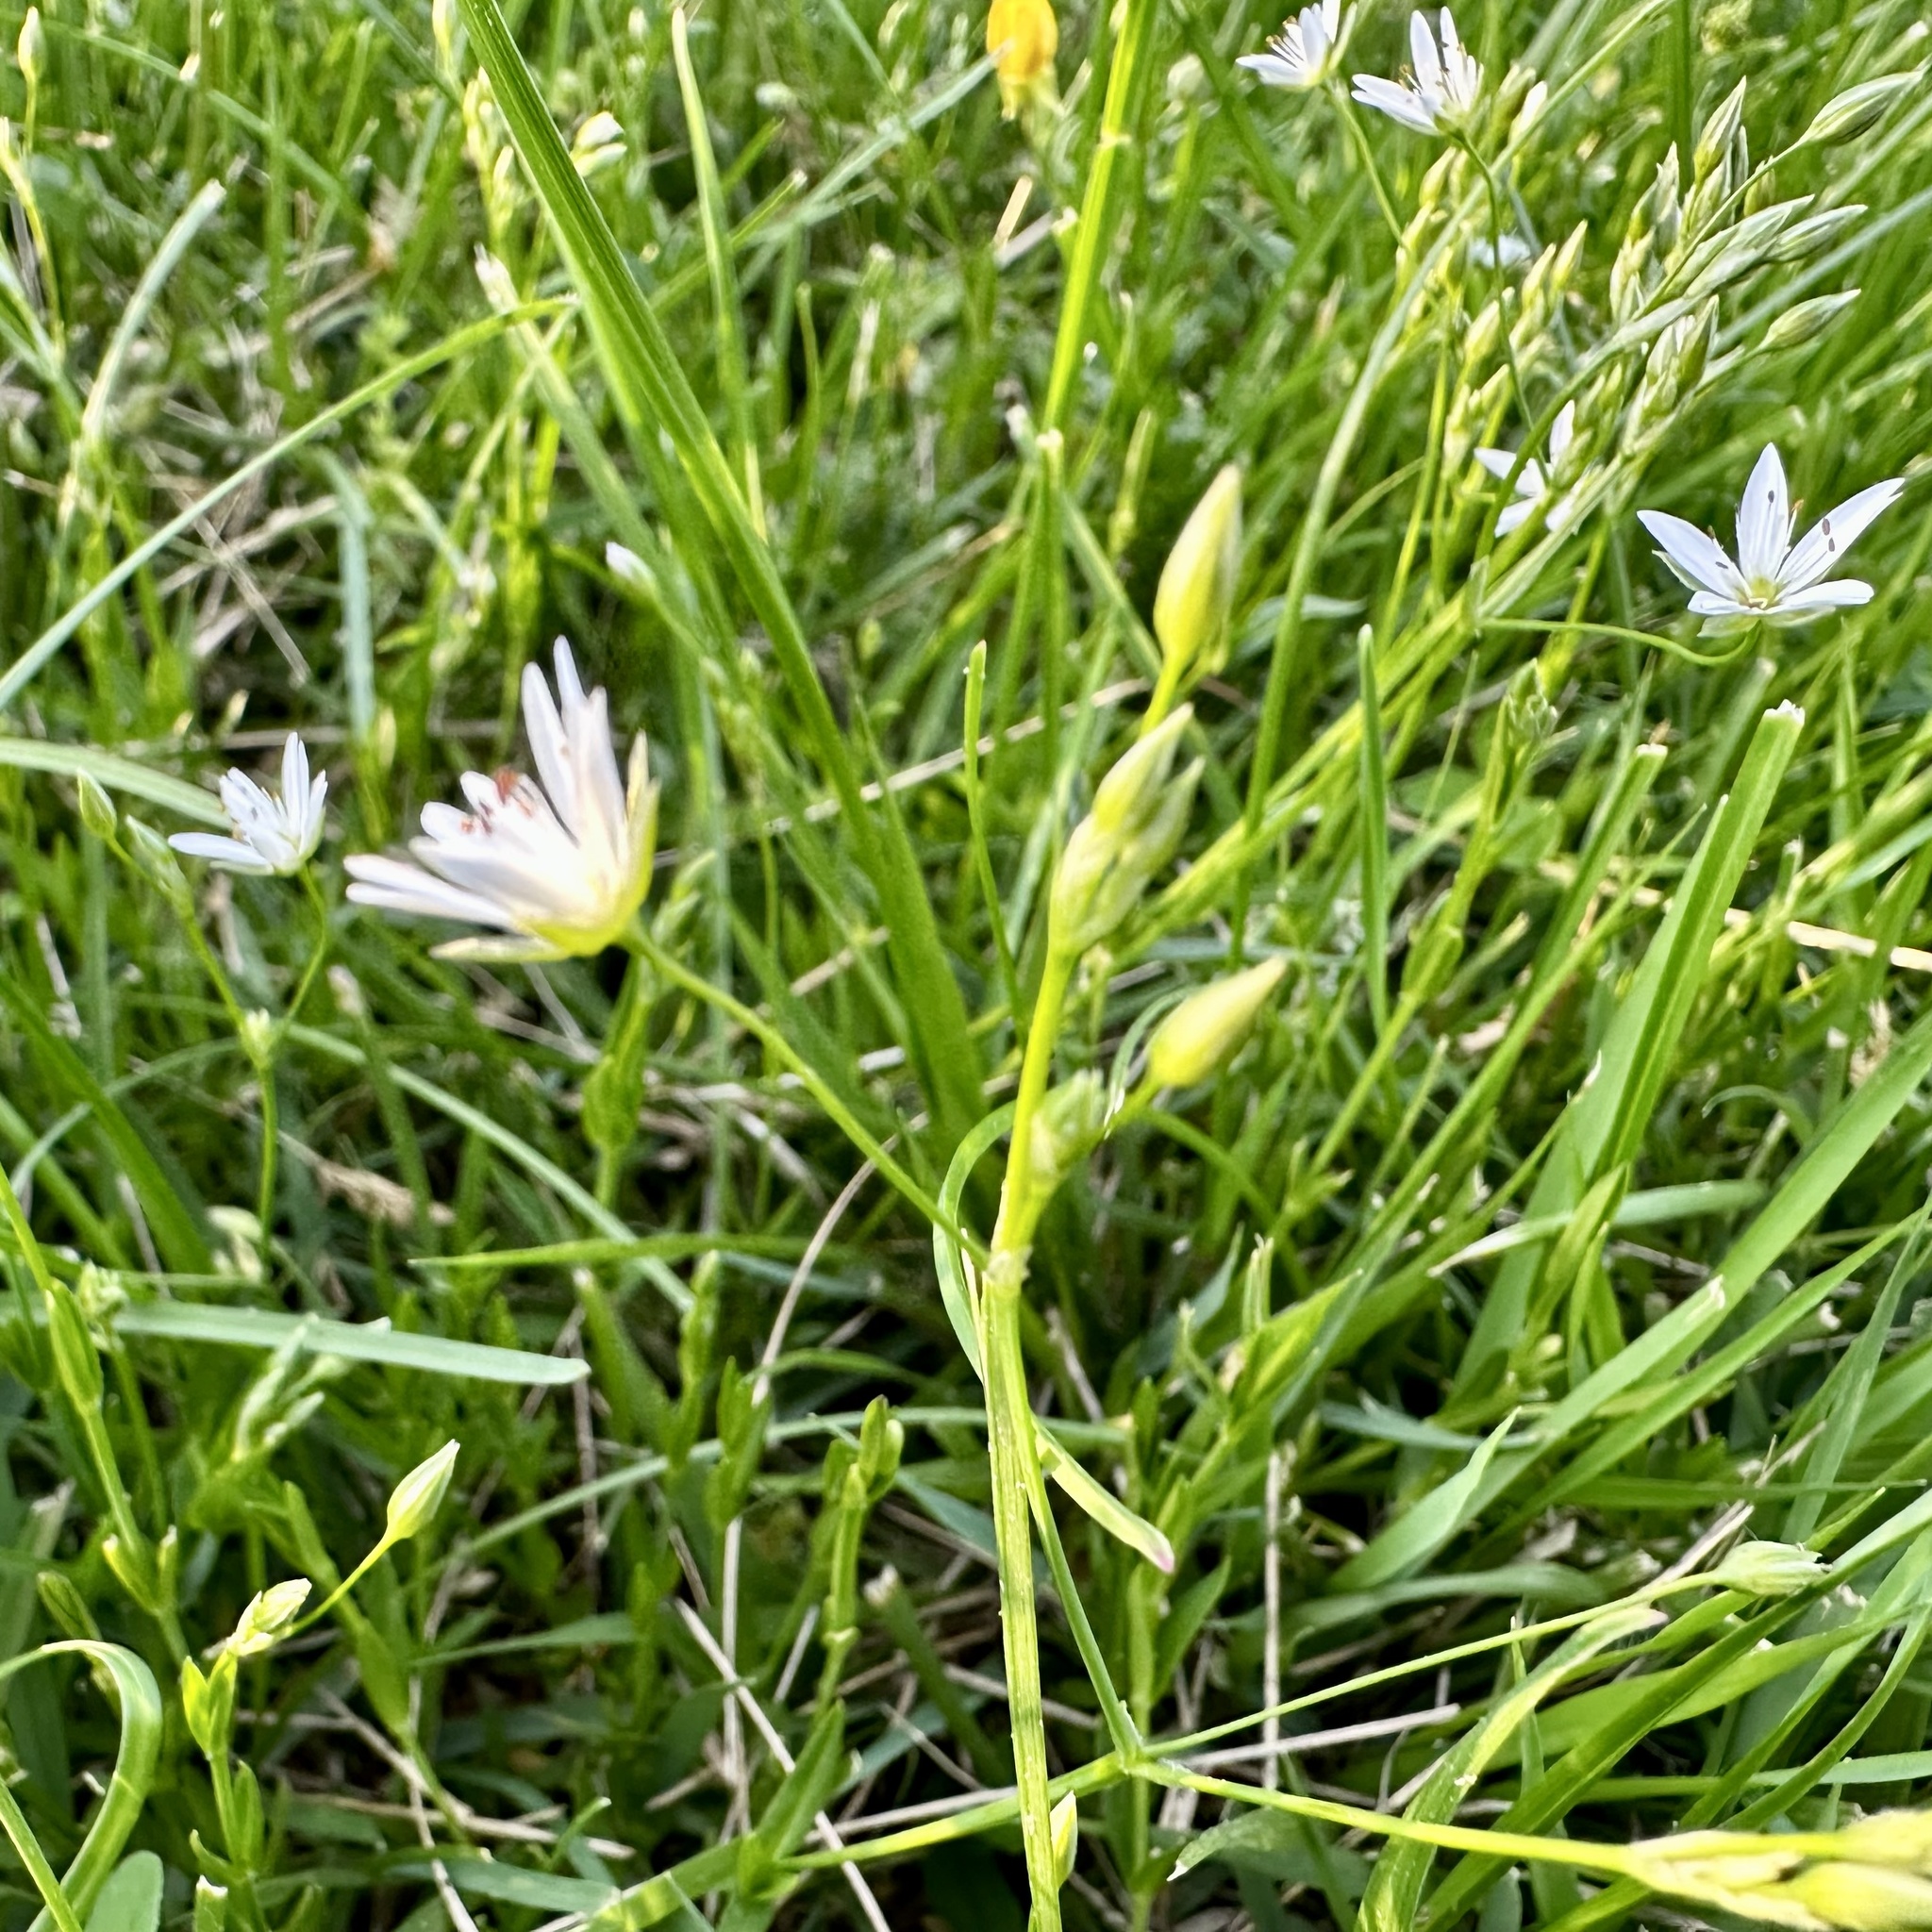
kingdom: Plantae
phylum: Tracheophyta
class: Magnoliopsida
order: Caryophyllales
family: Caryophyllaceae
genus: Stellaria
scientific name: Stellaria graminea
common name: Grass-like starwort
